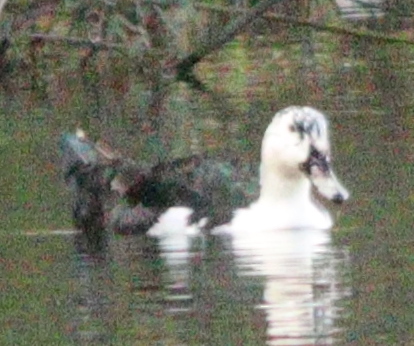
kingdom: Animalia
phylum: Chordata
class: Aves
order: Anseriformes
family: Anatidae
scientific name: Anatidae
